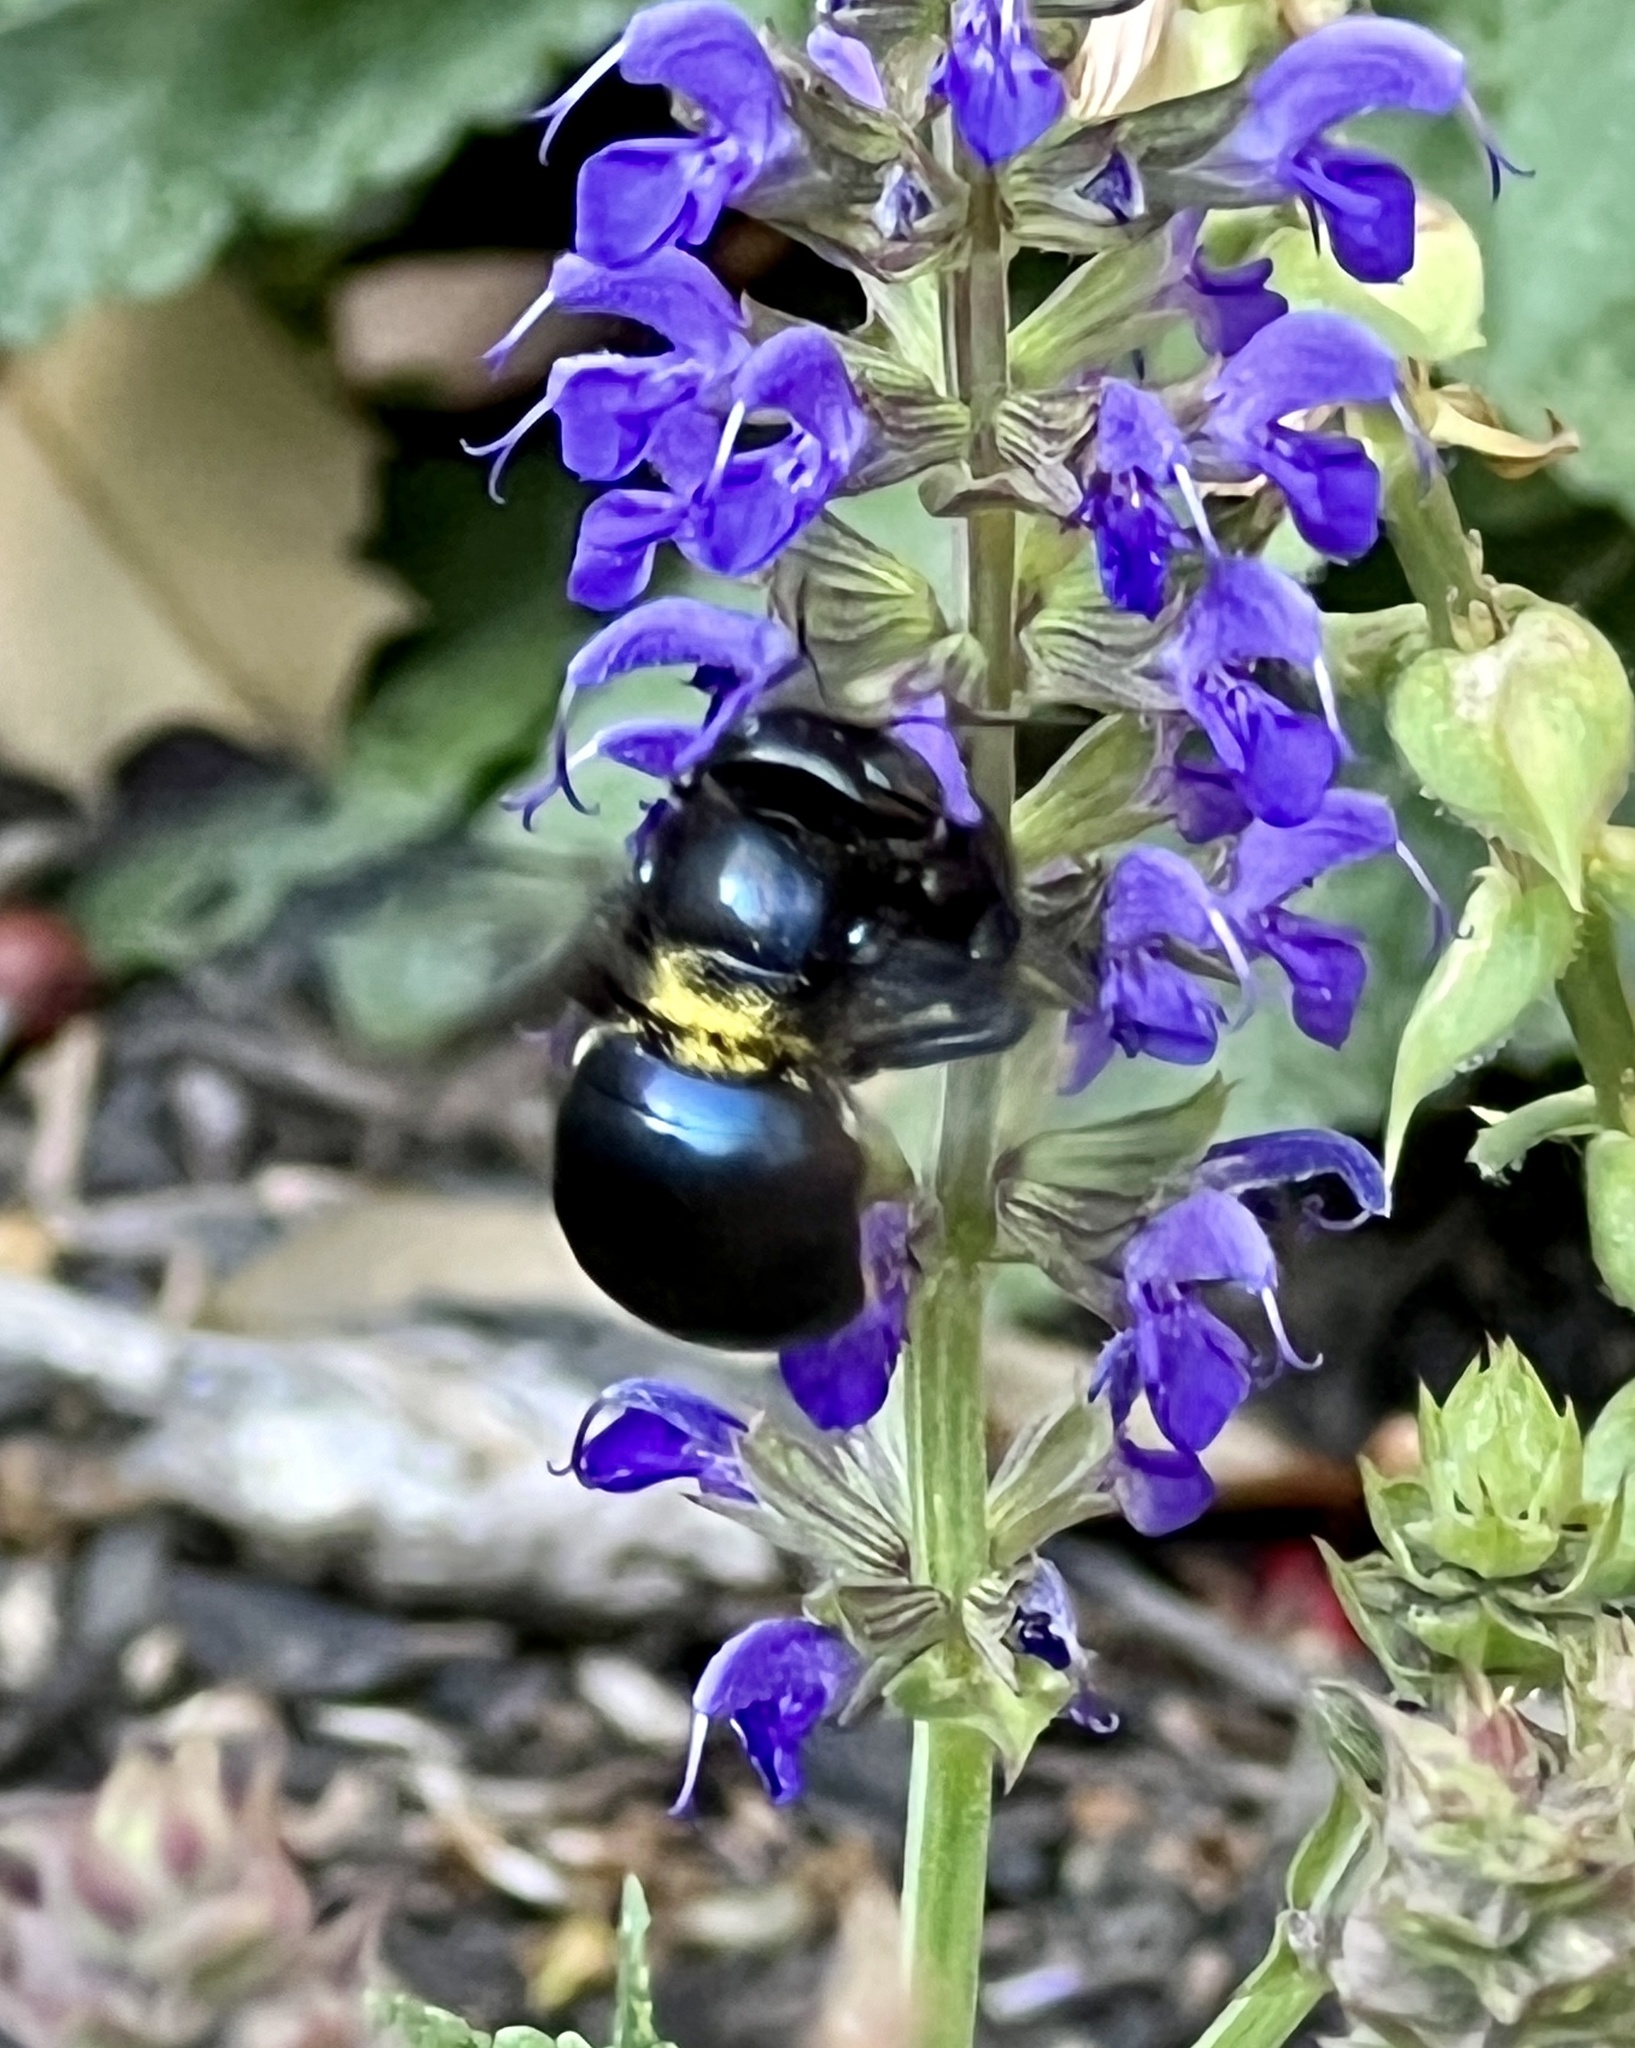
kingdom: Animalia
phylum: Arthropoda
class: Insecta
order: Hymenoptera
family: Apidae
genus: Xylocopa
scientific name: Xylocopa micans
